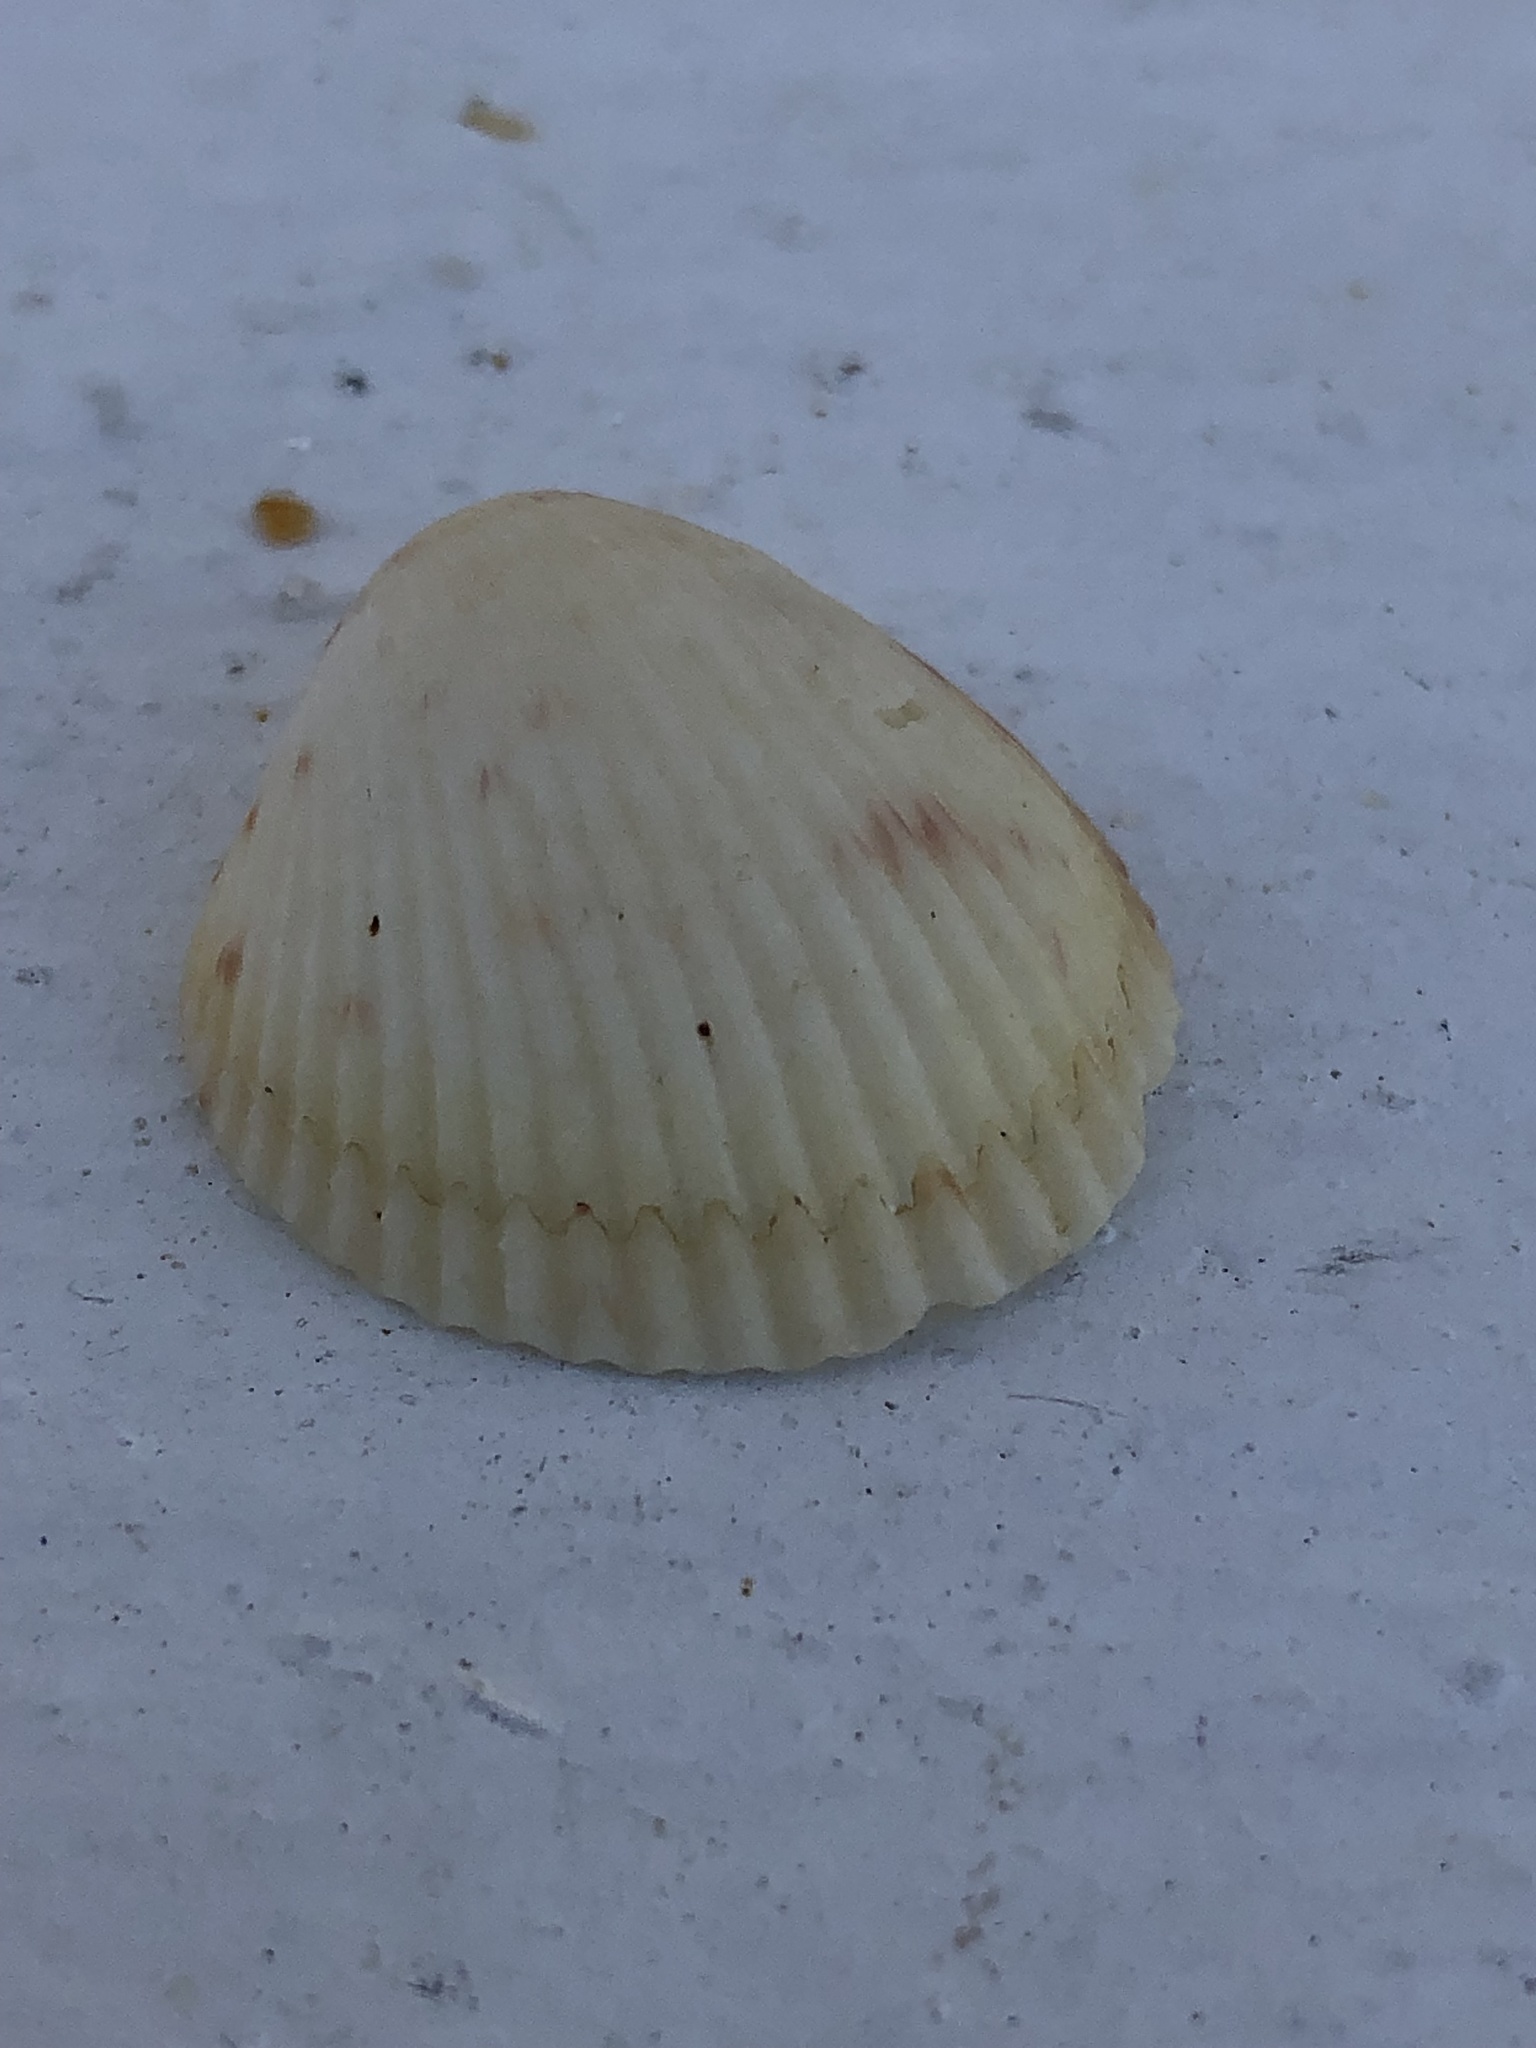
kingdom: Animalia
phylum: Mollusca
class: Bivalvia
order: Cardiida
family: Cardiidae
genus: Dallocardia
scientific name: Dallocardia muricata
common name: Yellow pricklycockle
